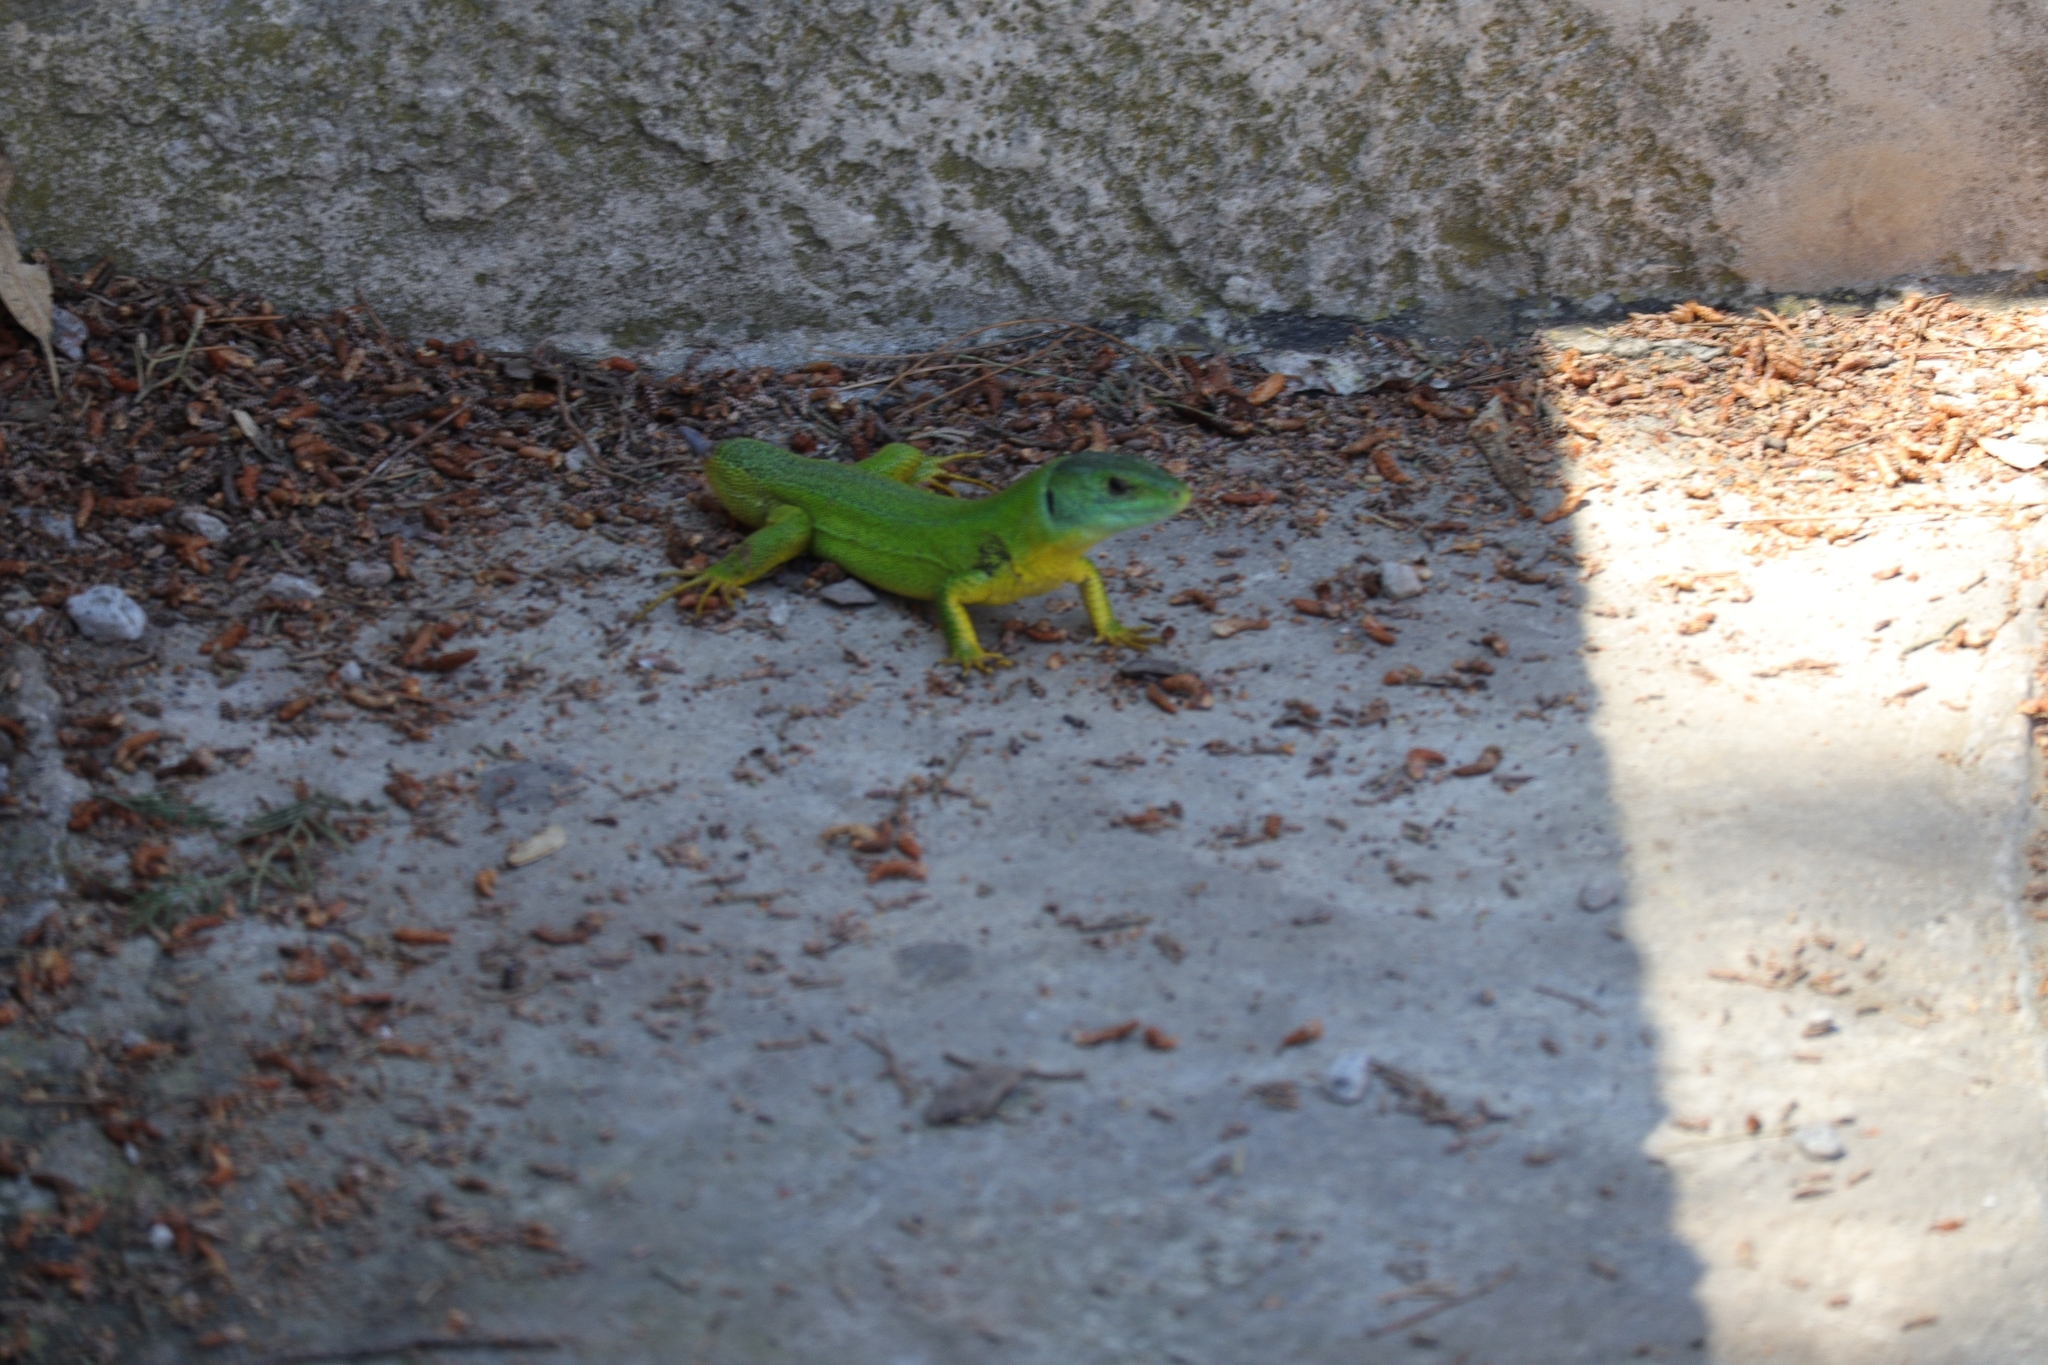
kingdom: Animalia
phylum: Chordata
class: Squamata
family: Lacertidae
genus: Lacerta
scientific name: Lacerta trilineata
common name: Balkan green lizard
